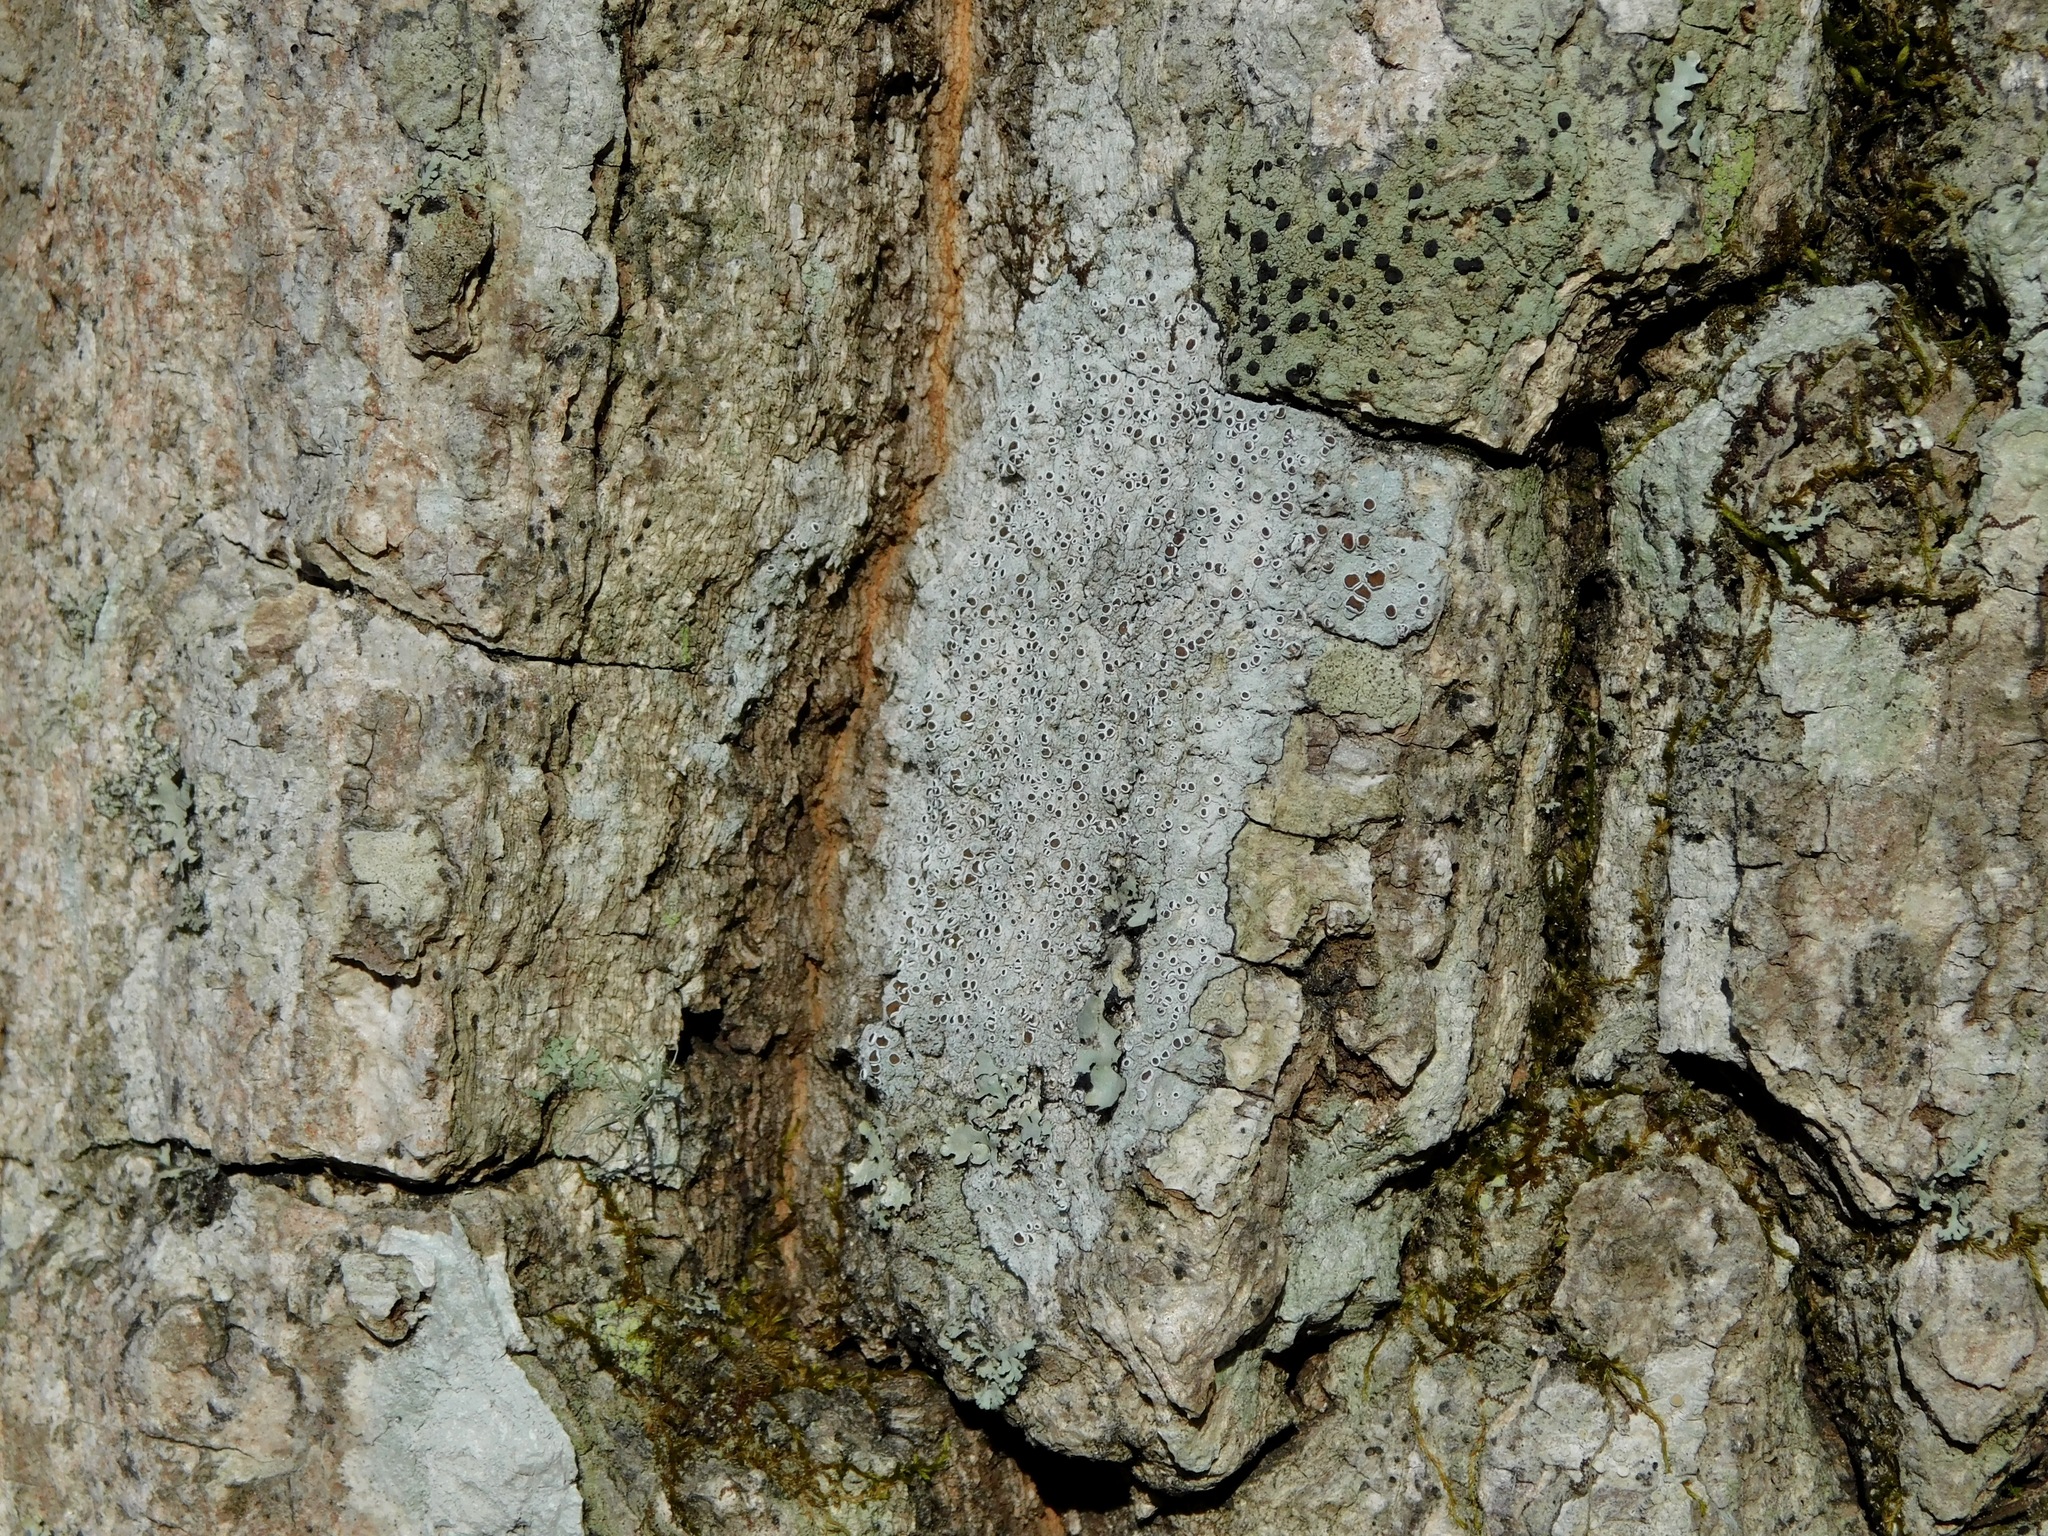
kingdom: Fungi
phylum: Ascomycota
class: Lecanoromycetes
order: Lecanorales
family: Lecanoraceae
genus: Lecanora
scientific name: Lecanora imshaugi
